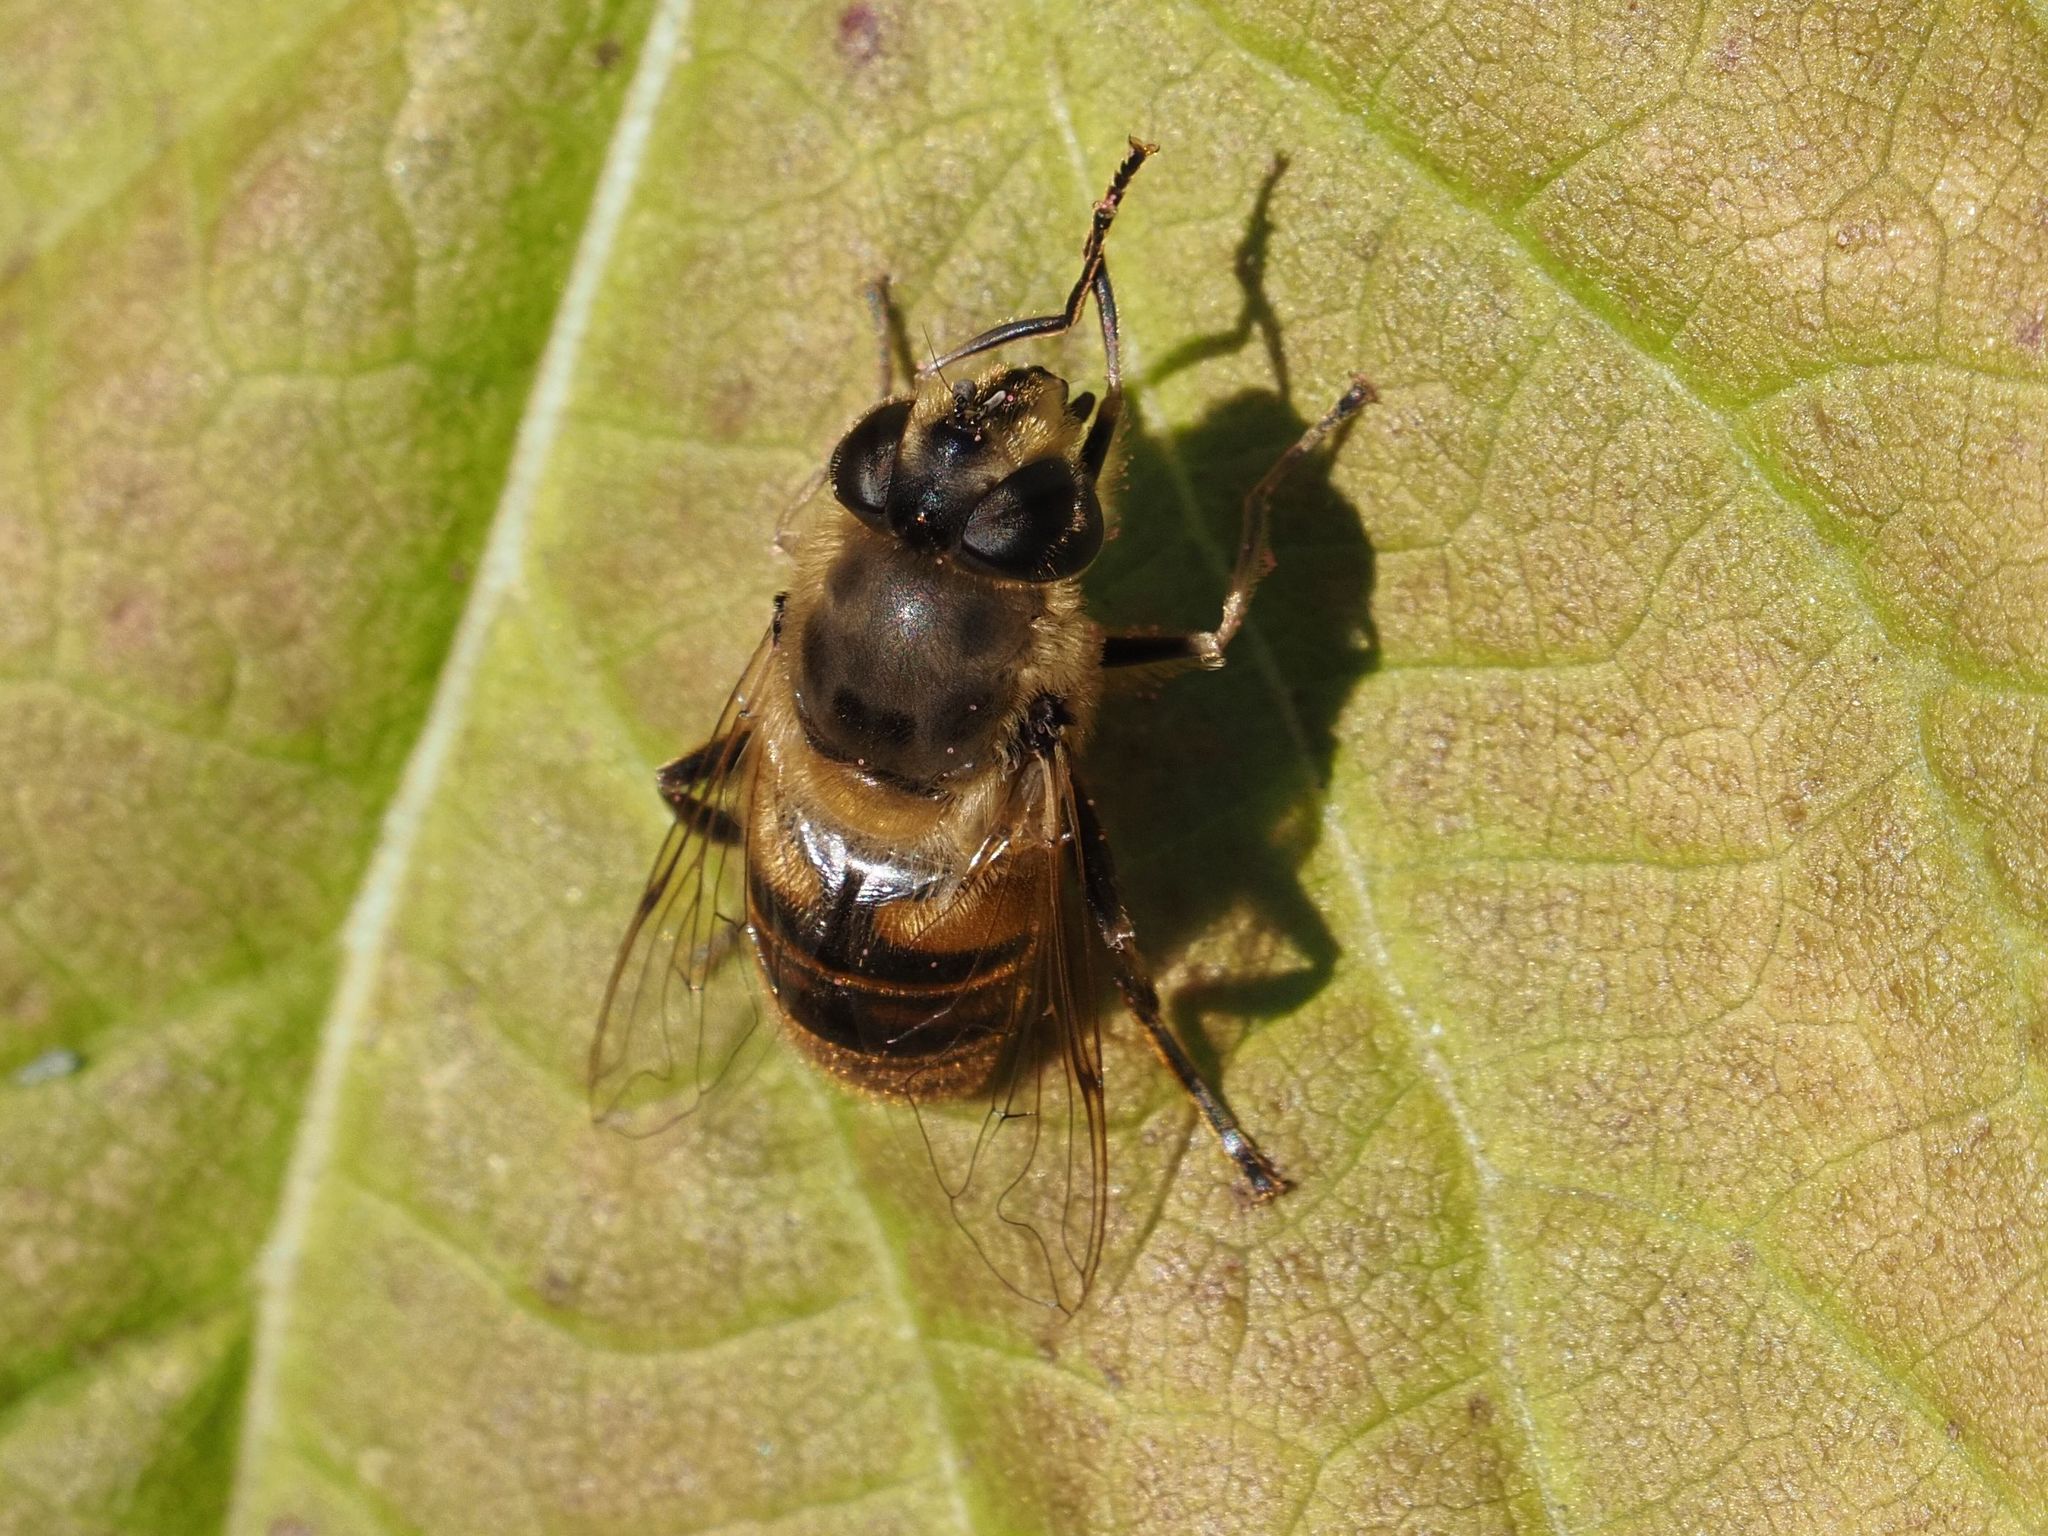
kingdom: Animalia
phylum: Arthropoda
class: Insecta
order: Diptera
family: Syrphidae
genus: Eristalis
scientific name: Eristalis tenax
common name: Drone fly
